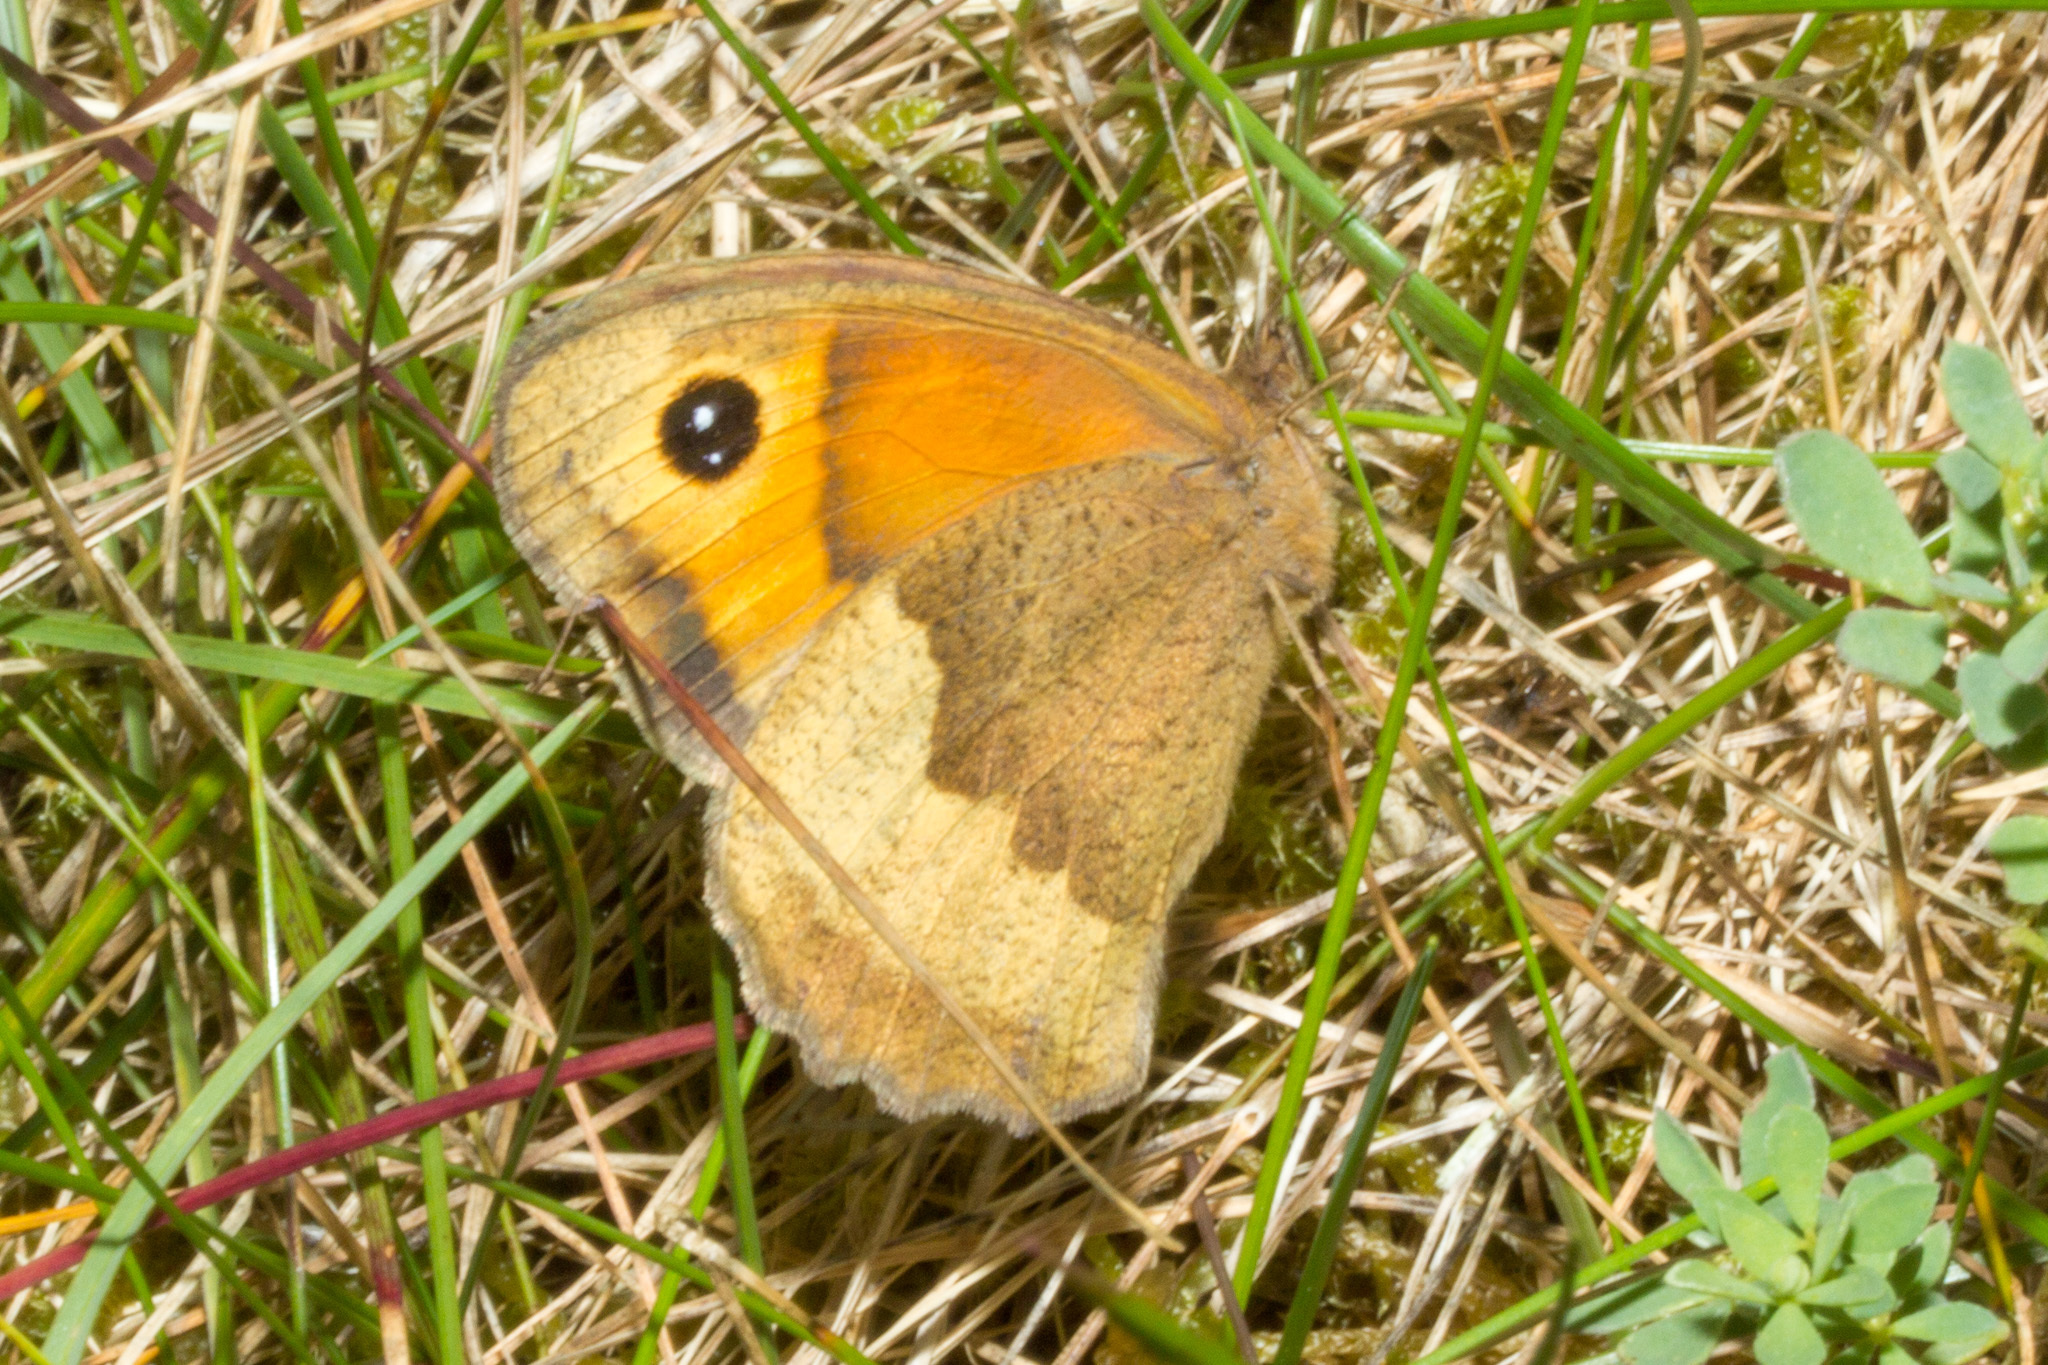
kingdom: Animalia
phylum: Arthropoda
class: Insecta
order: Lepidoptera
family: Nymphalidae
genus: Maniola
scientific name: Maniola jurtina
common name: Meadow brown
